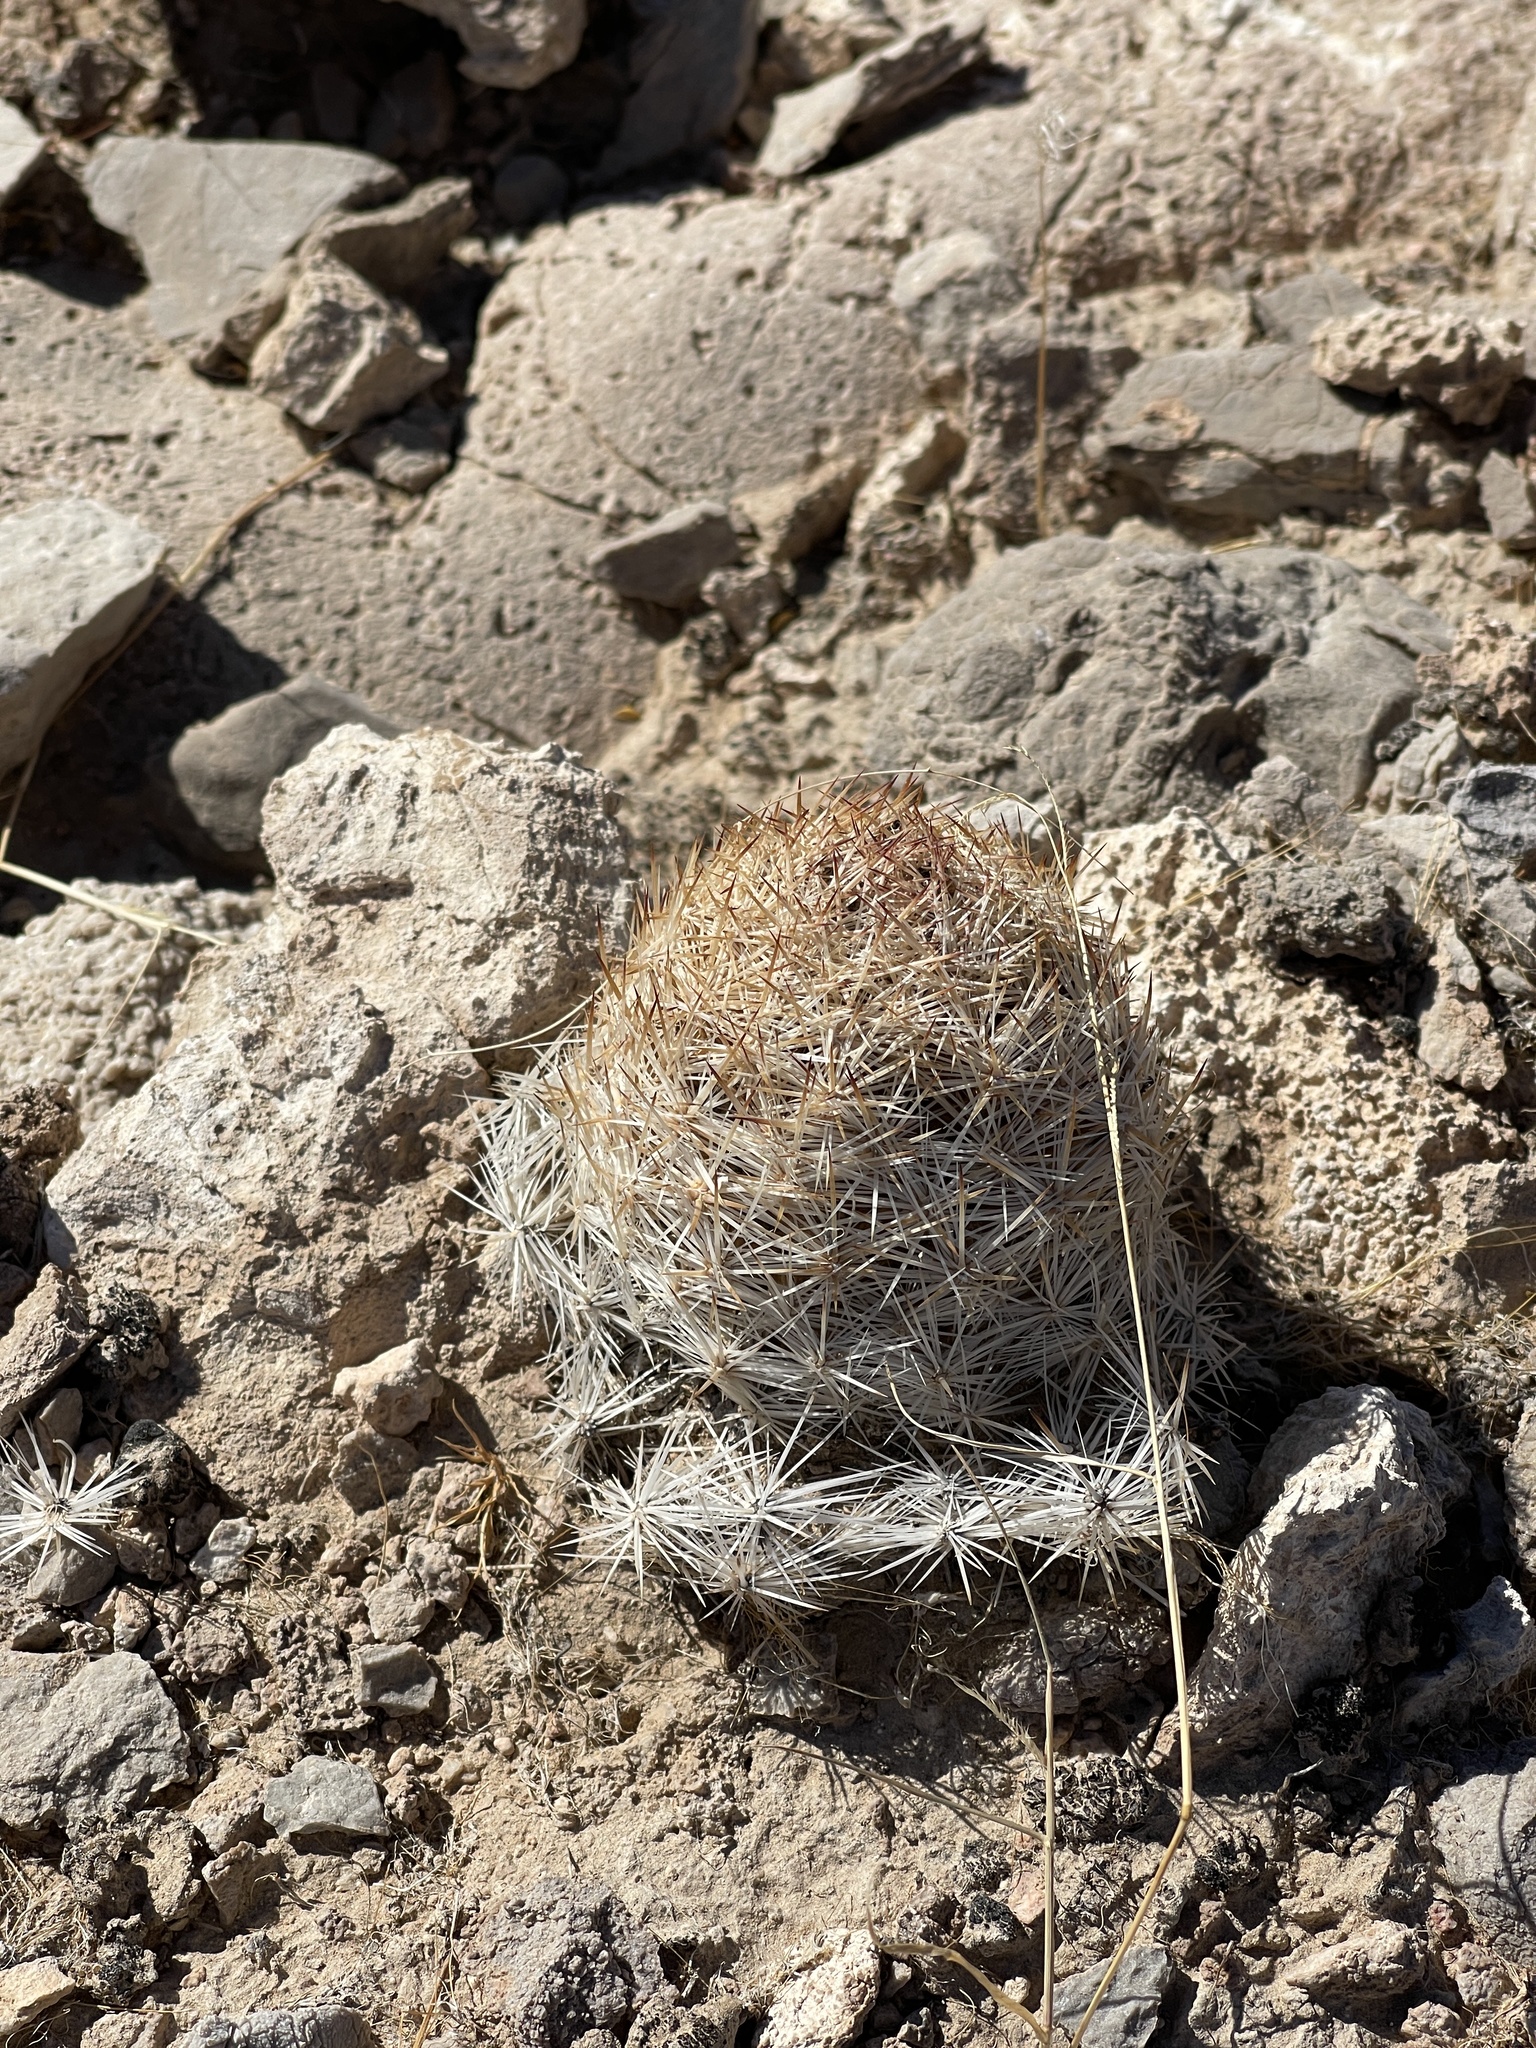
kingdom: Plantae
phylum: Tracheophyta
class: Magnoliopsida
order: Caryophyllales
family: Cactaceae
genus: Pelecyphora
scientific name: Pelecyphora dasyacantha
